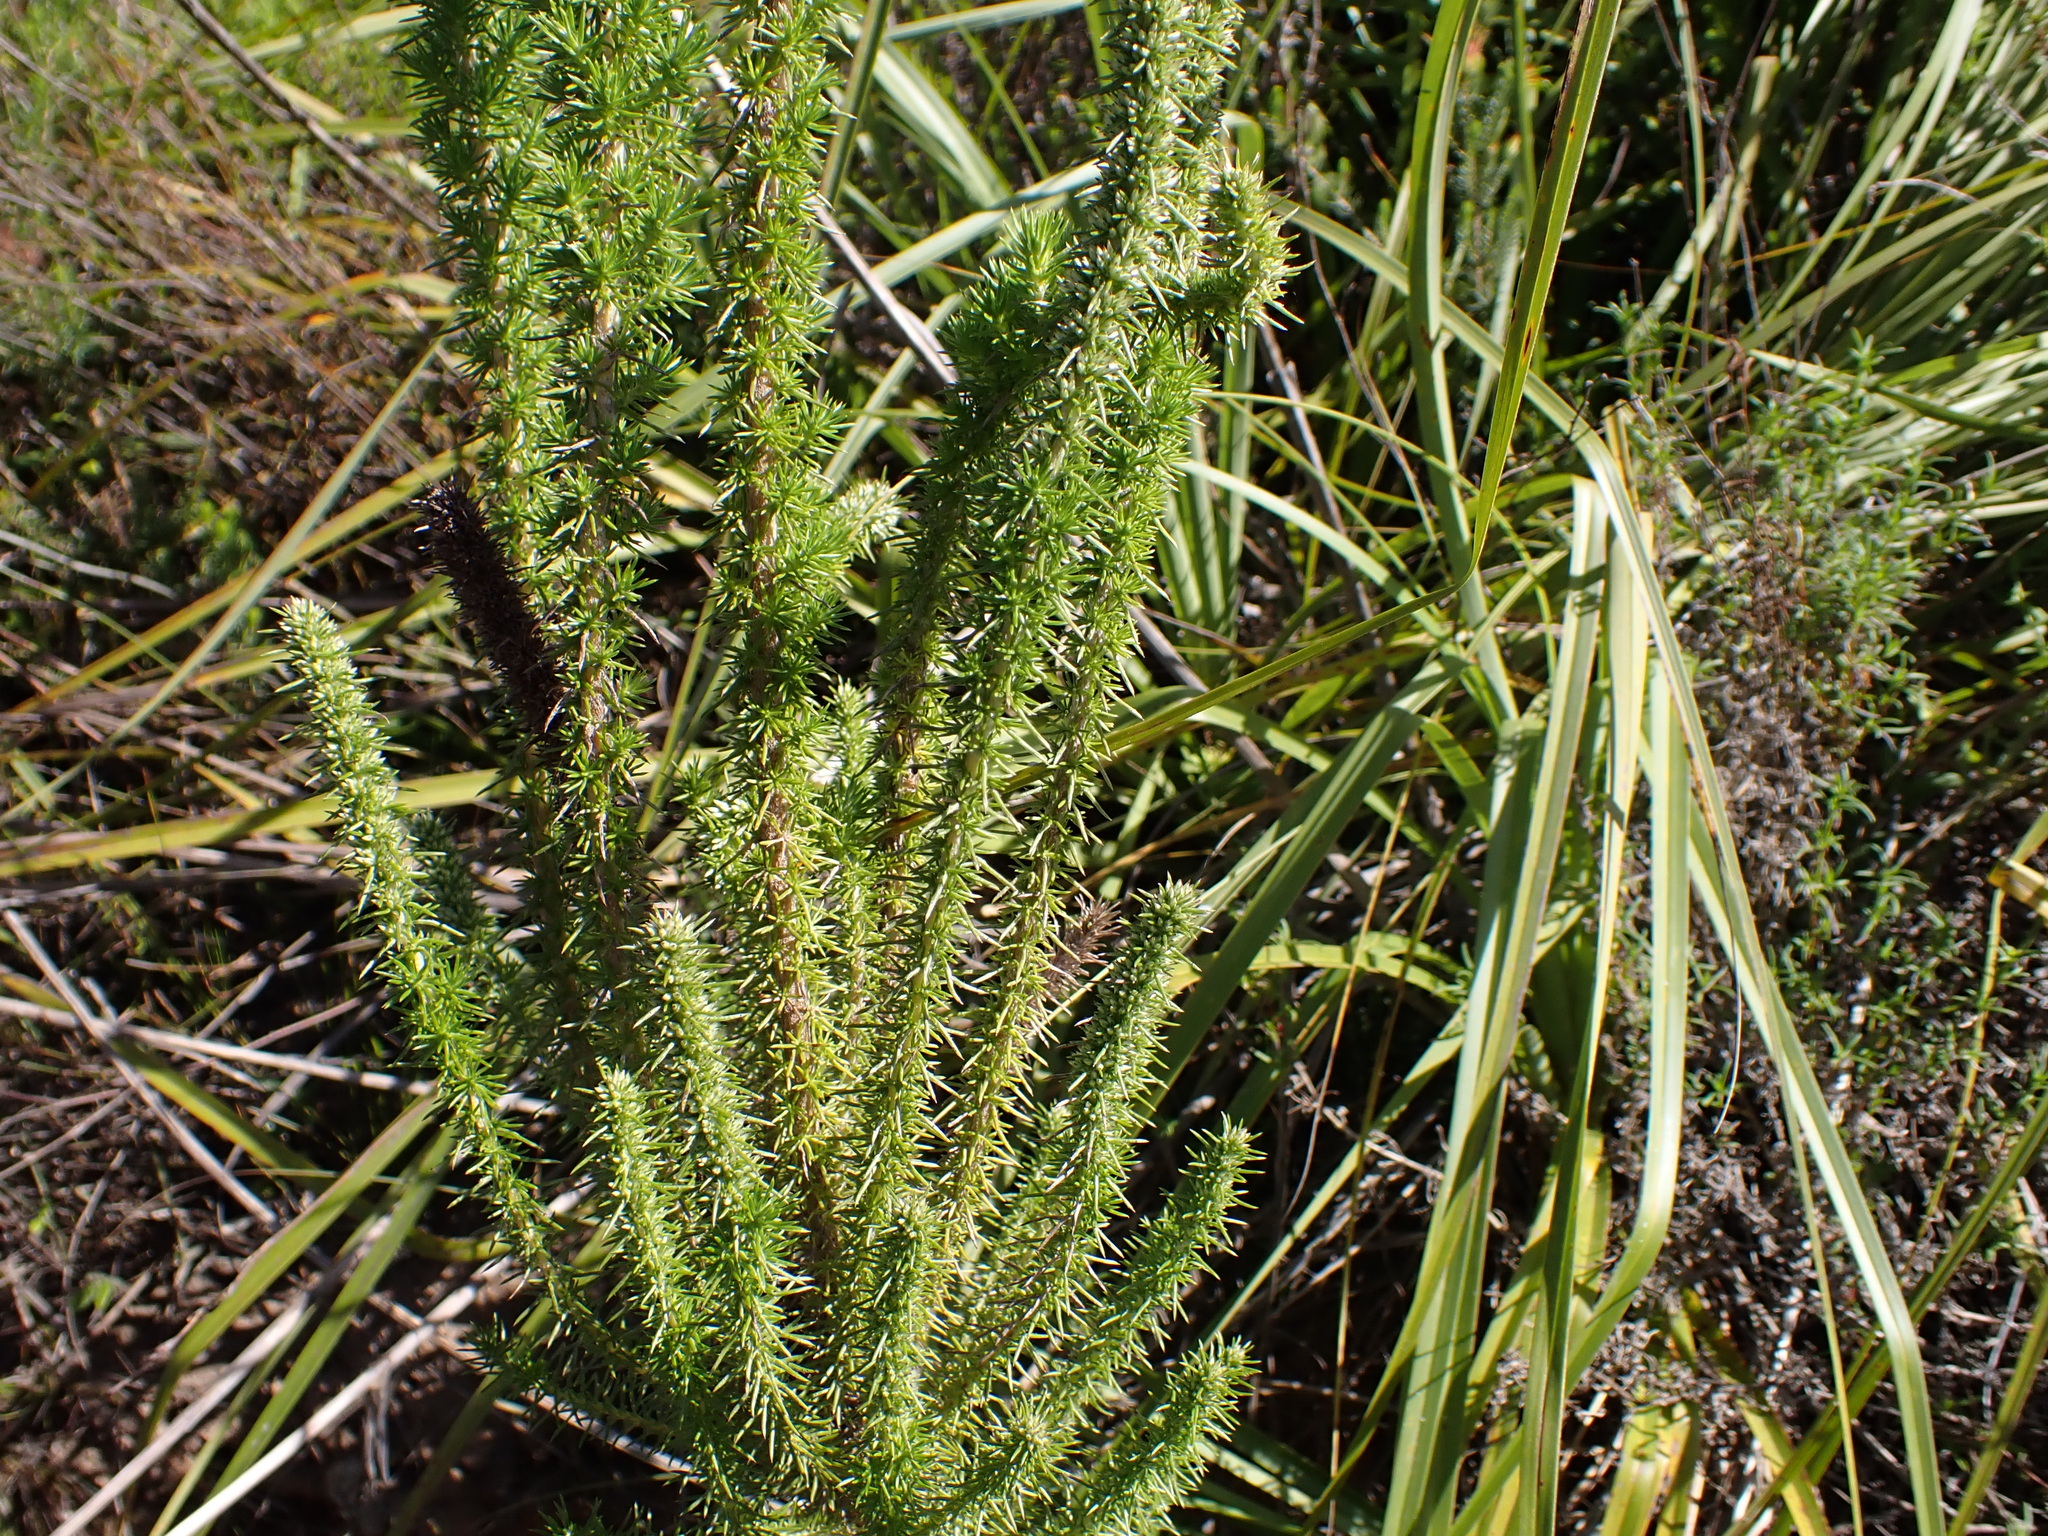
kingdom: Plantae
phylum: Tracheophyta
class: Magnoliopsida
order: Asterales
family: Asteraceae
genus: Stoebe
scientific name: Stoebe alopecuroides
